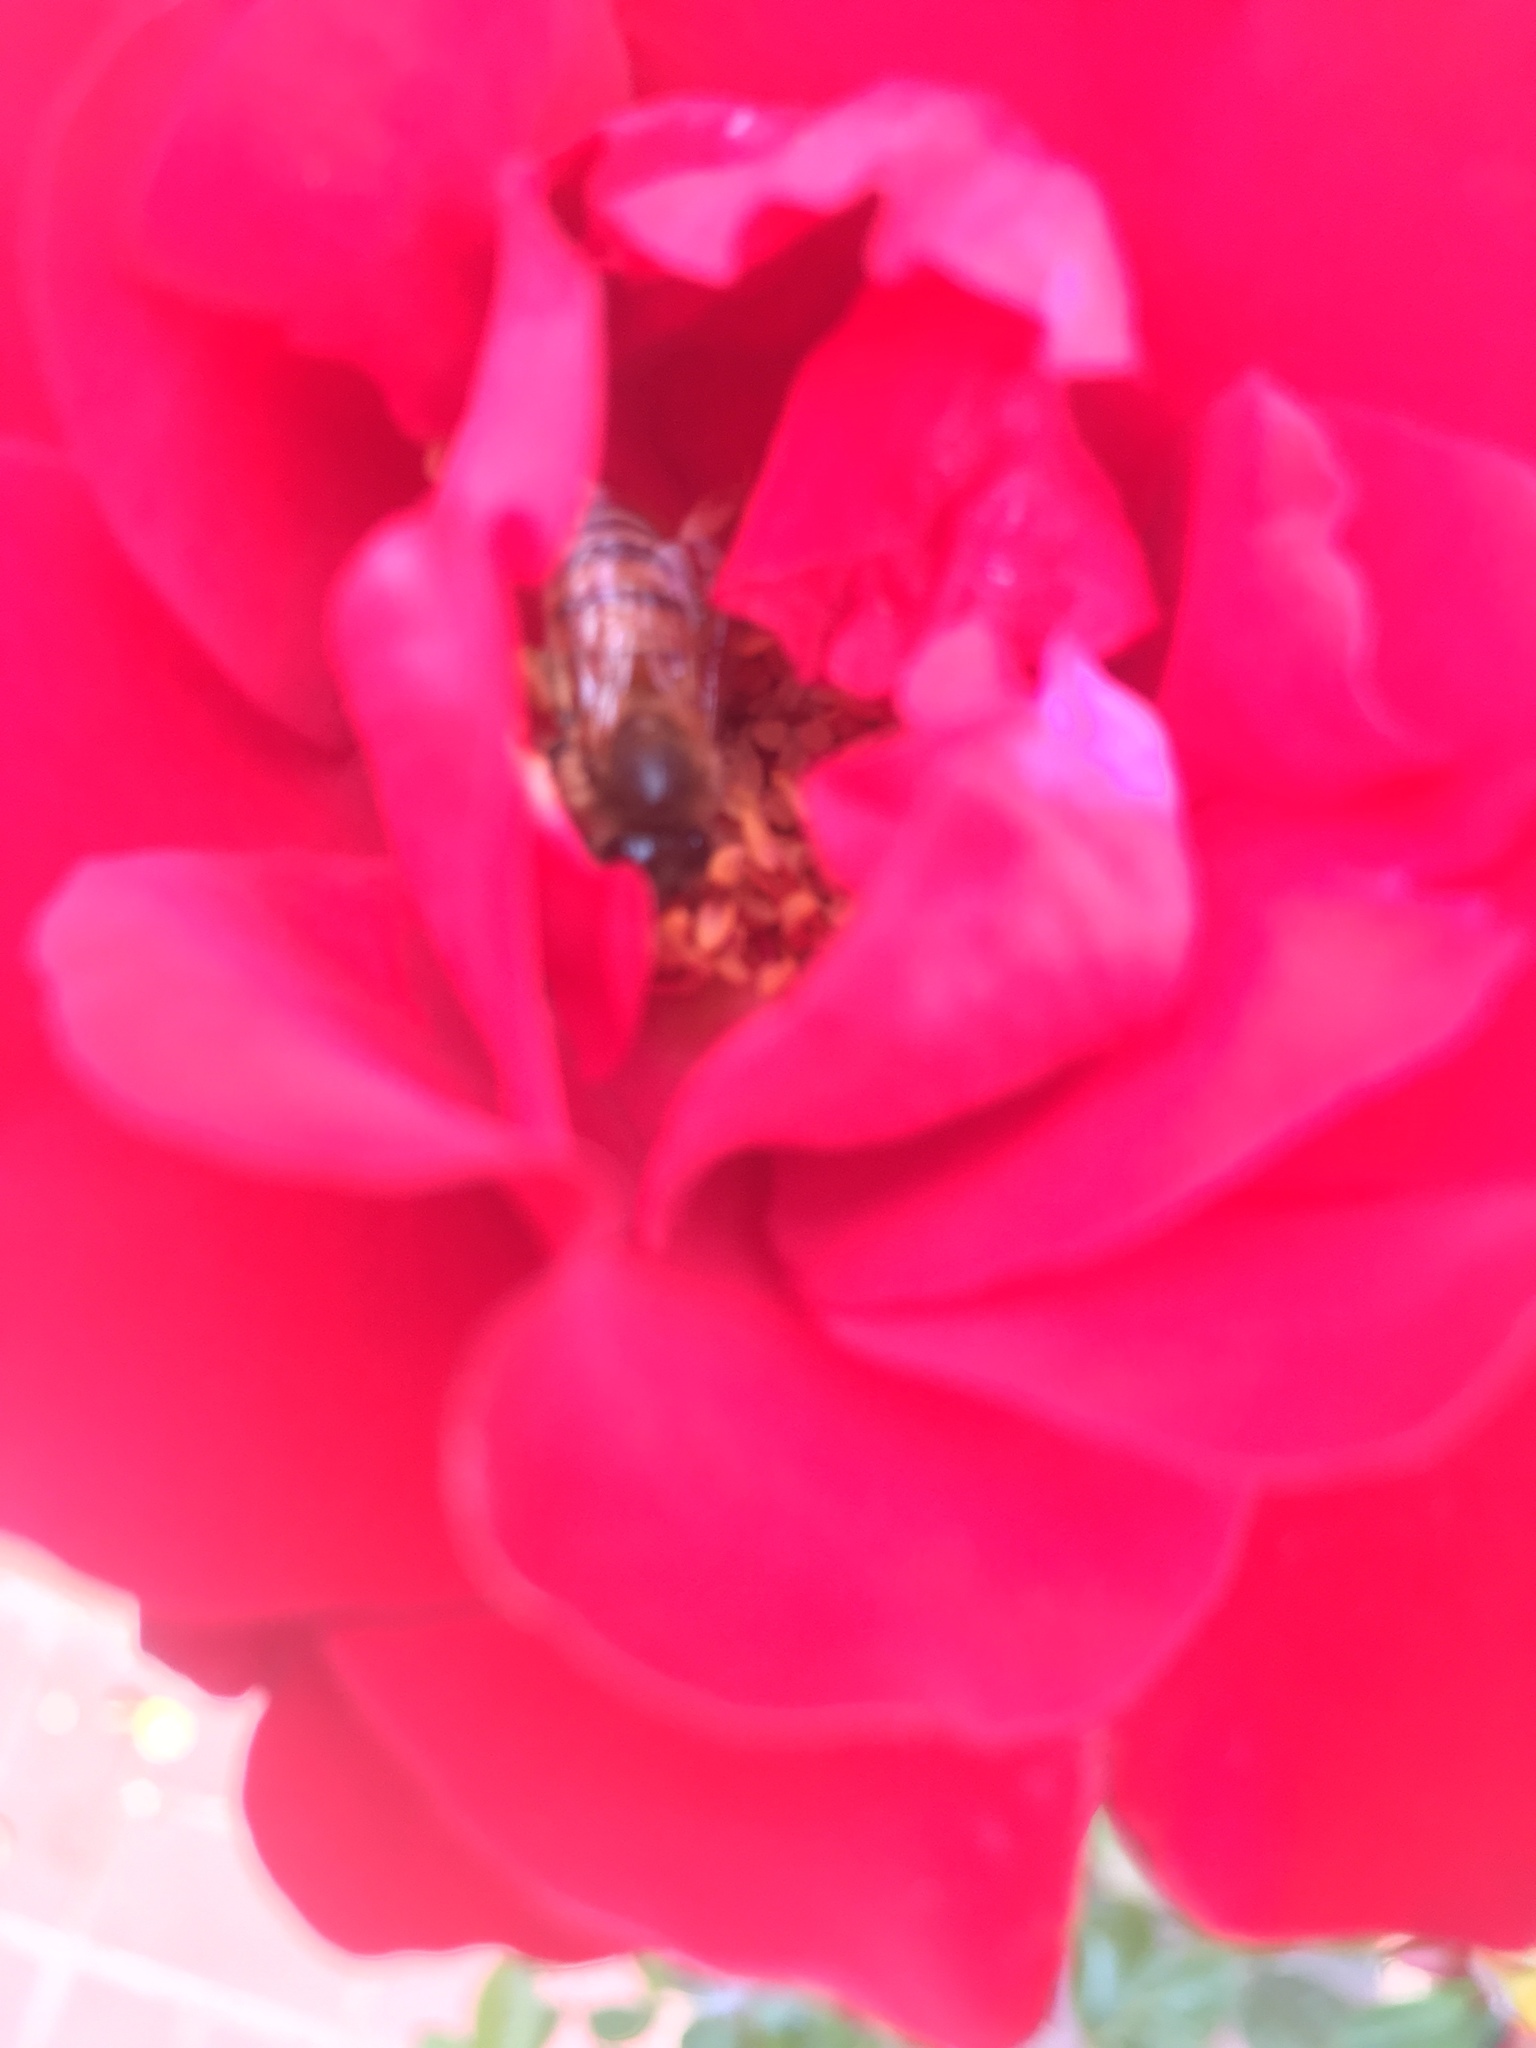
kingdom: Animalia
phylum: Arthropoda
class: Insecta
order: Hymenoptera
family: Apidae
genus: Apis
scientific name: Apis mellifera
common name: Honey bee
